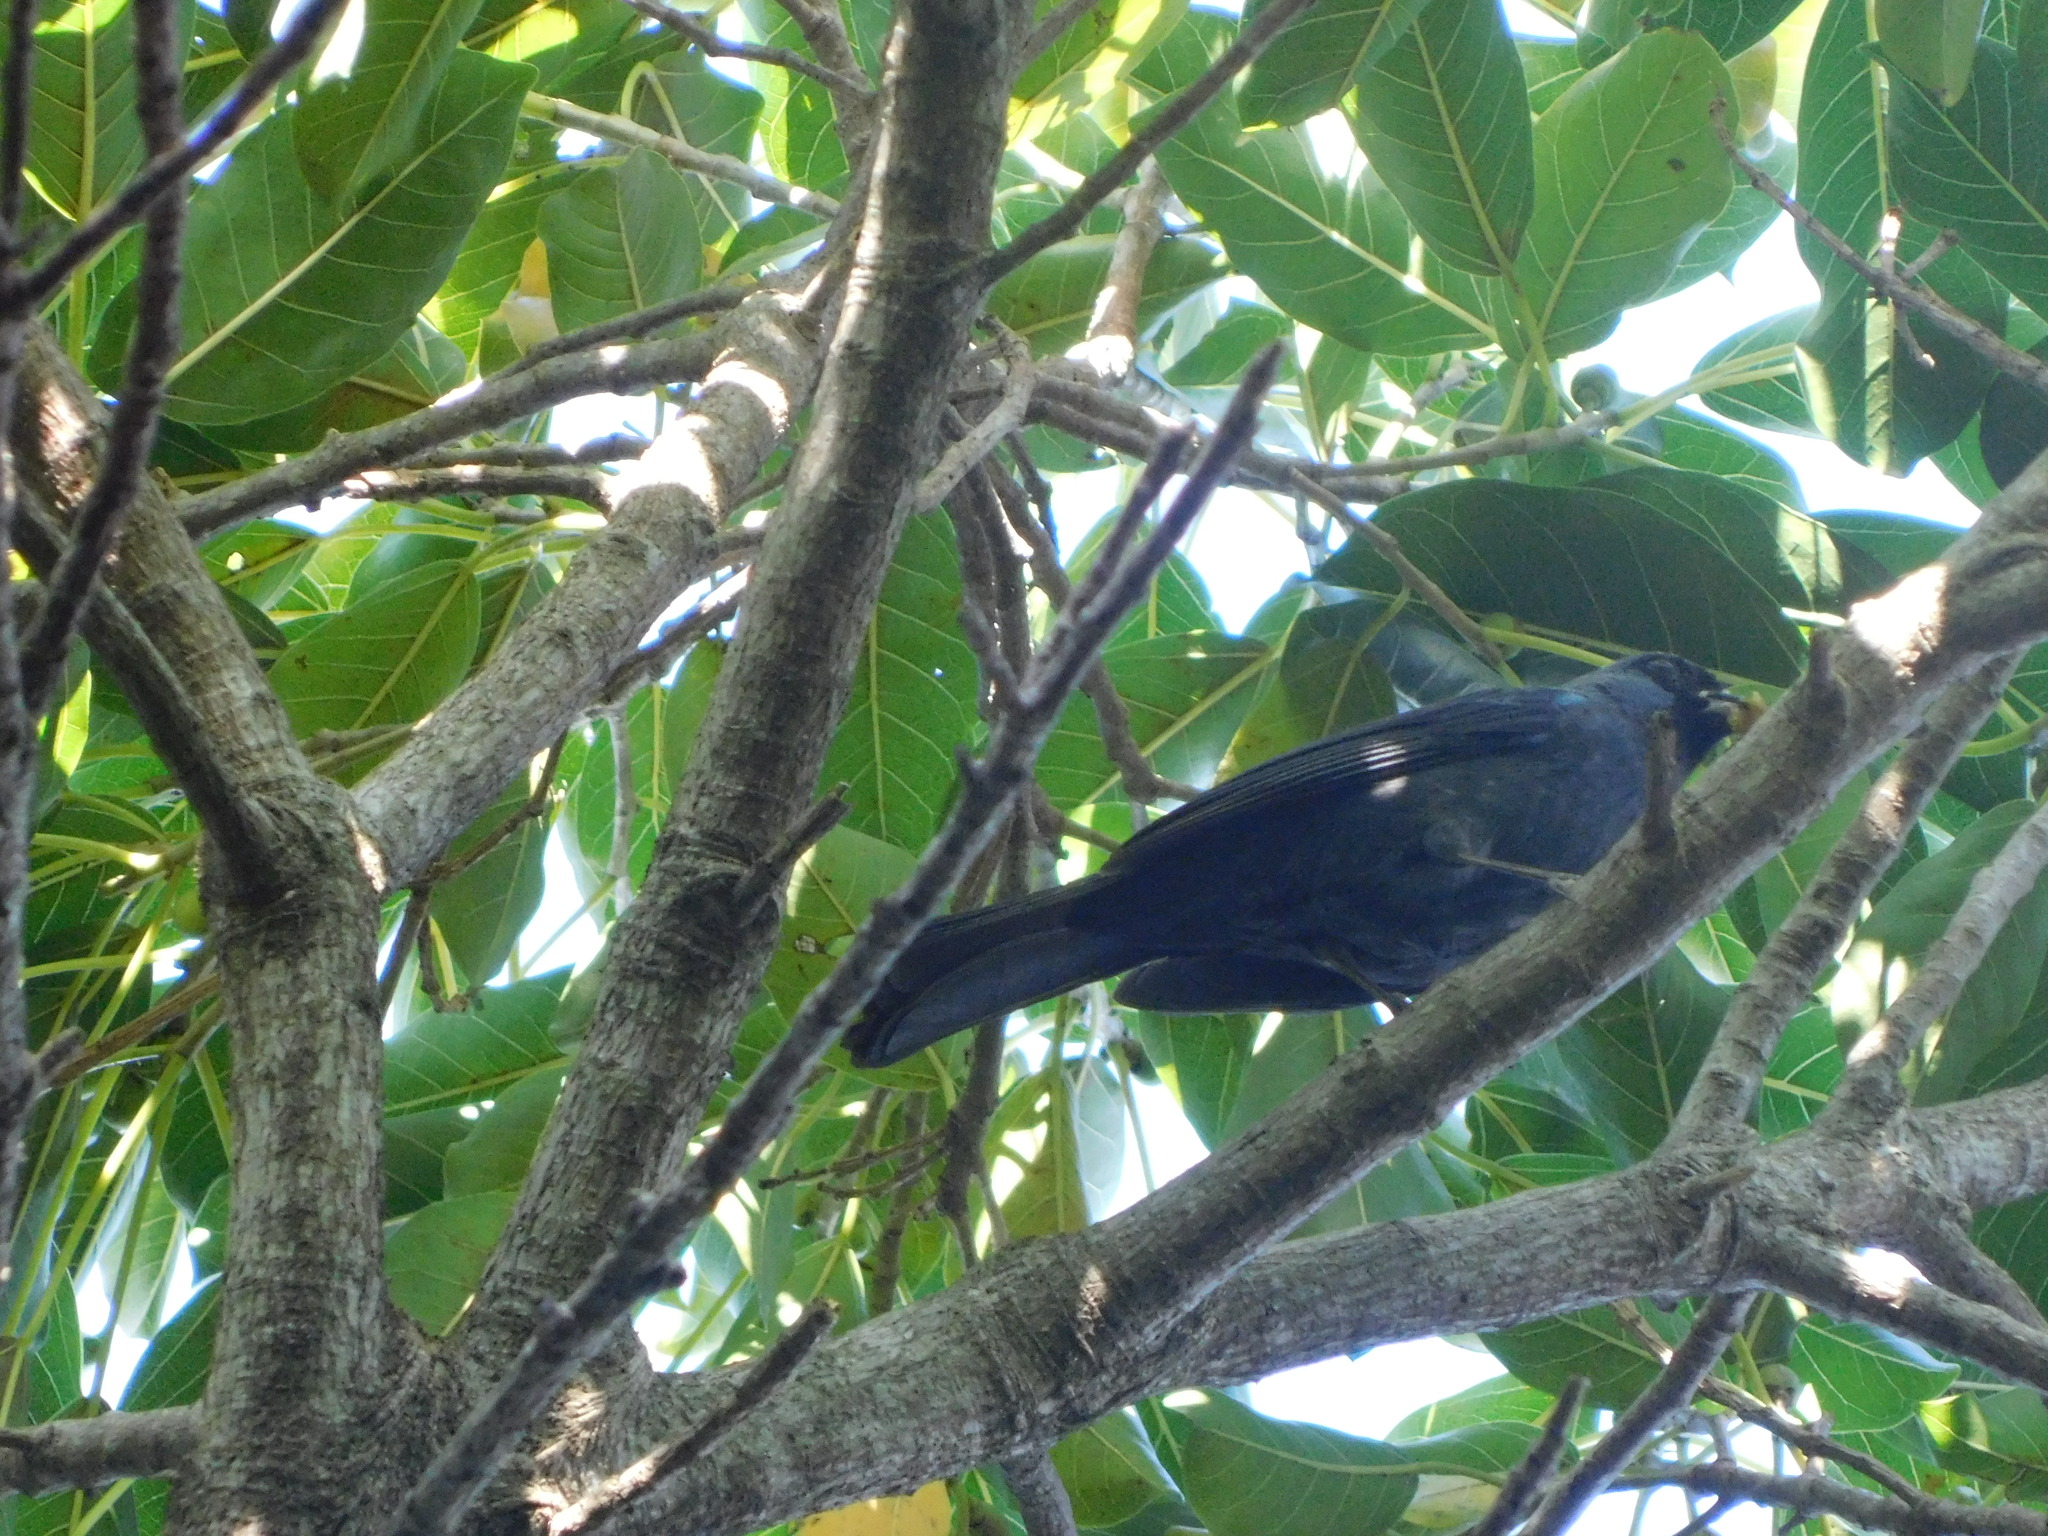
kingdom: Animalia
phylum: Chordata
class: Aves
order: Passeriformes
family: Thraupidae
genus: Stephanophorus
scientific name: Stephanophorus diadematus
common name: Diademed tanager
